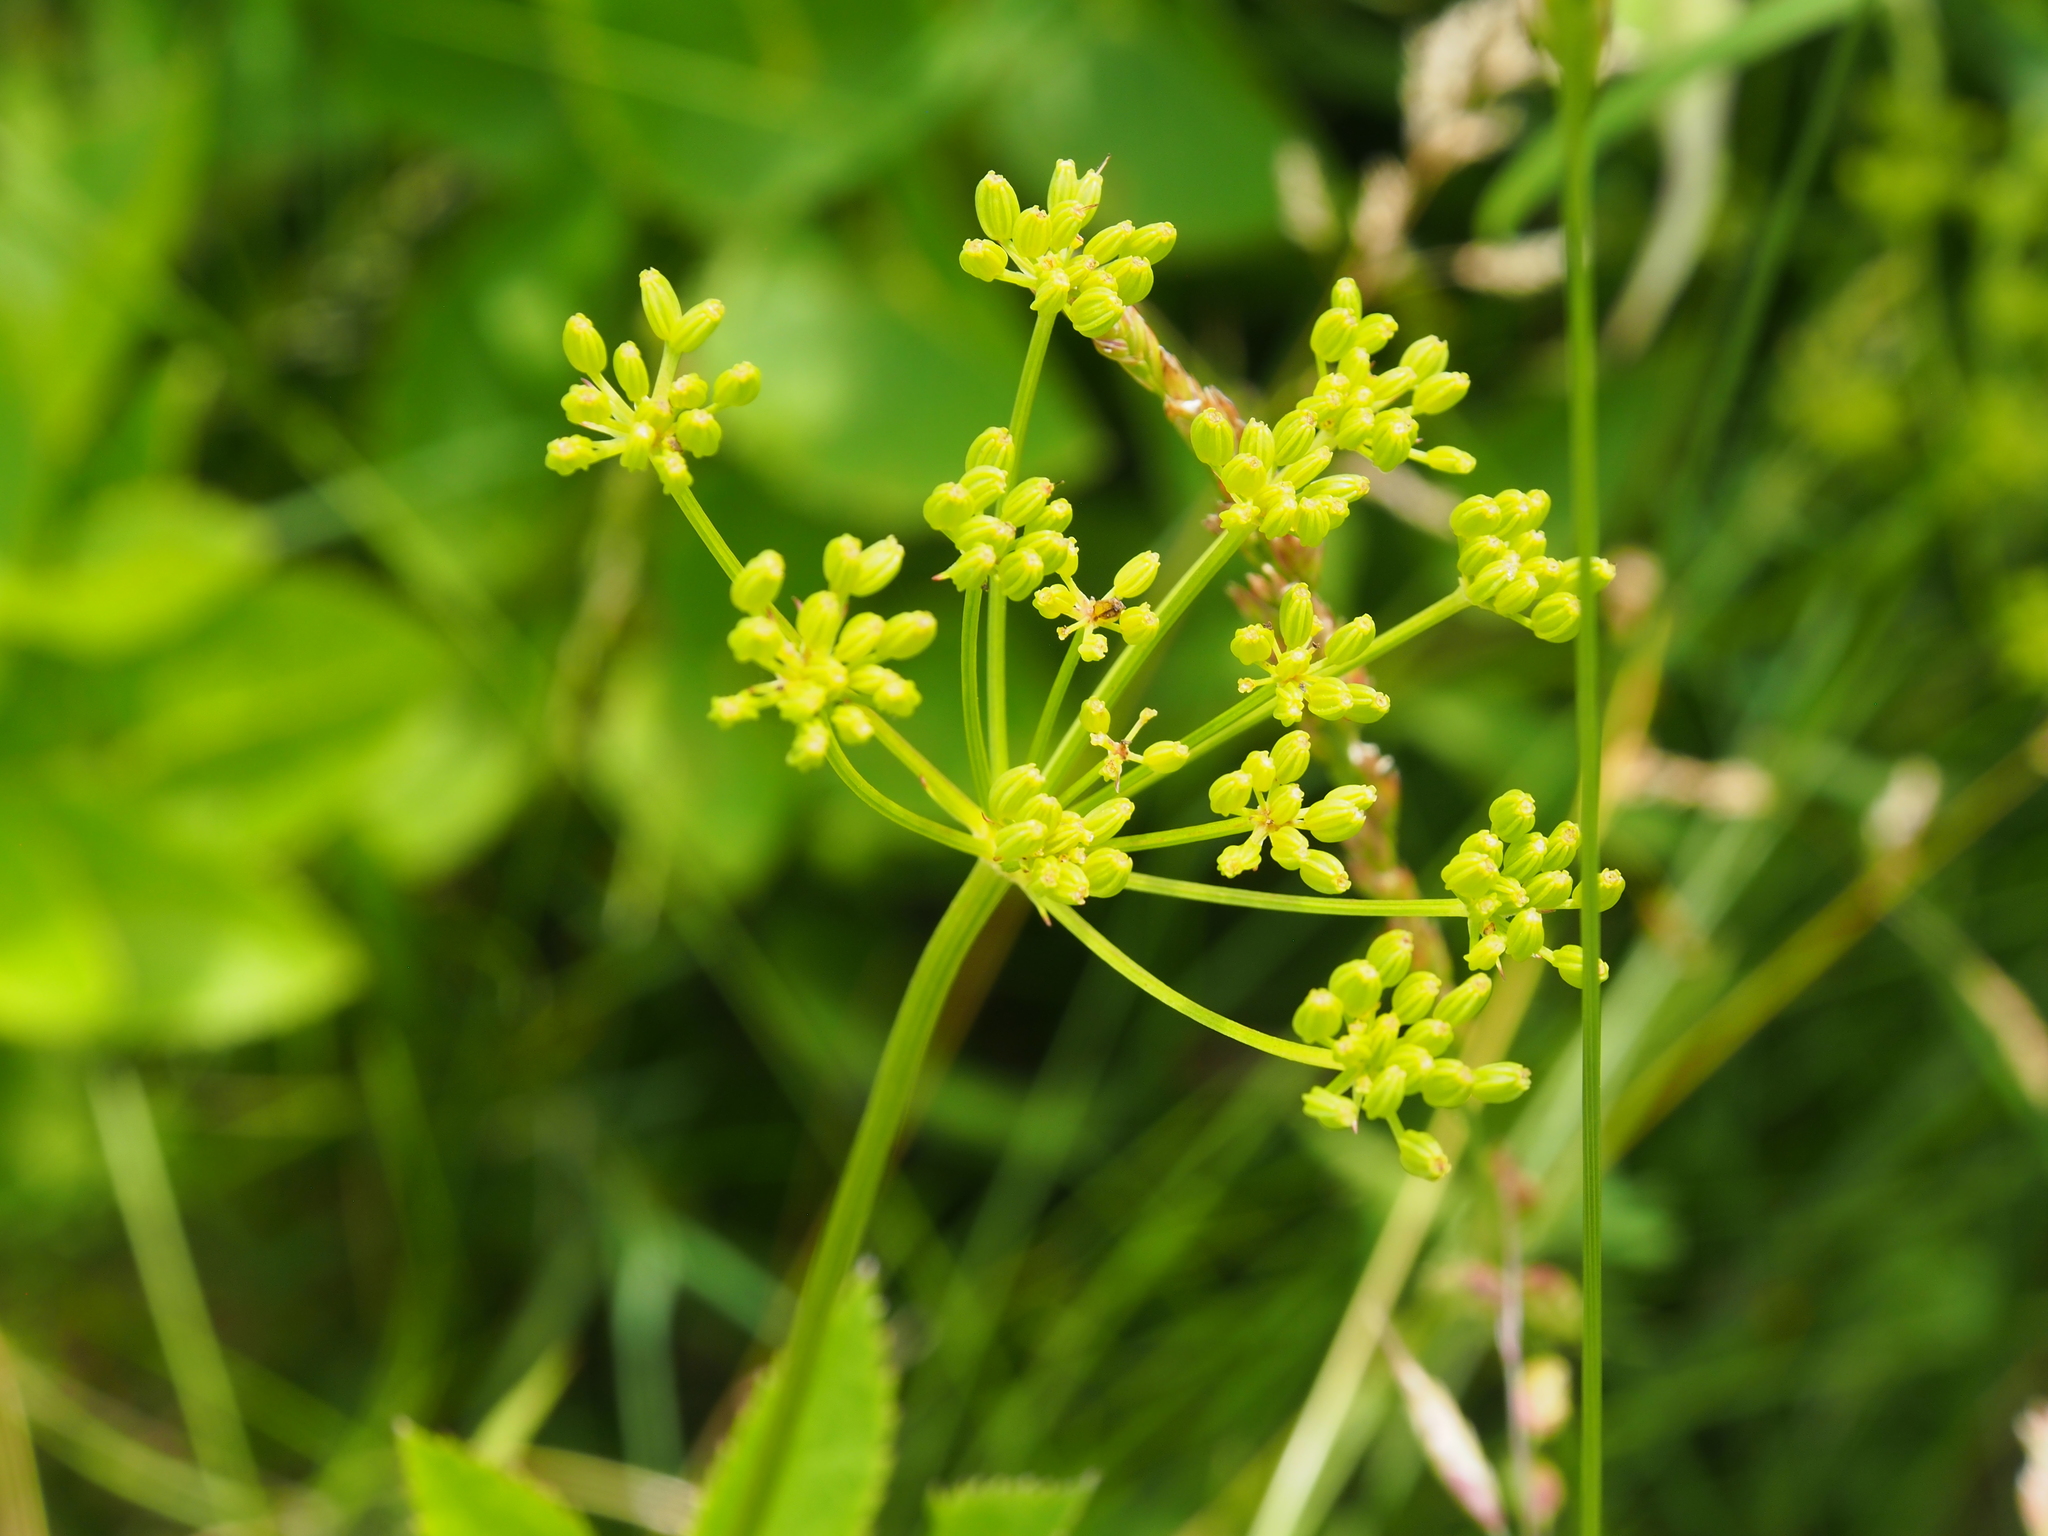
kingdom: Plantae
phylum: Tracheophyta
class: Magnoliopsida
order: Apiales
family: Apiaceae
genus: Zizia
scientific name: Zizia aurea
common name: Golden alexanders
